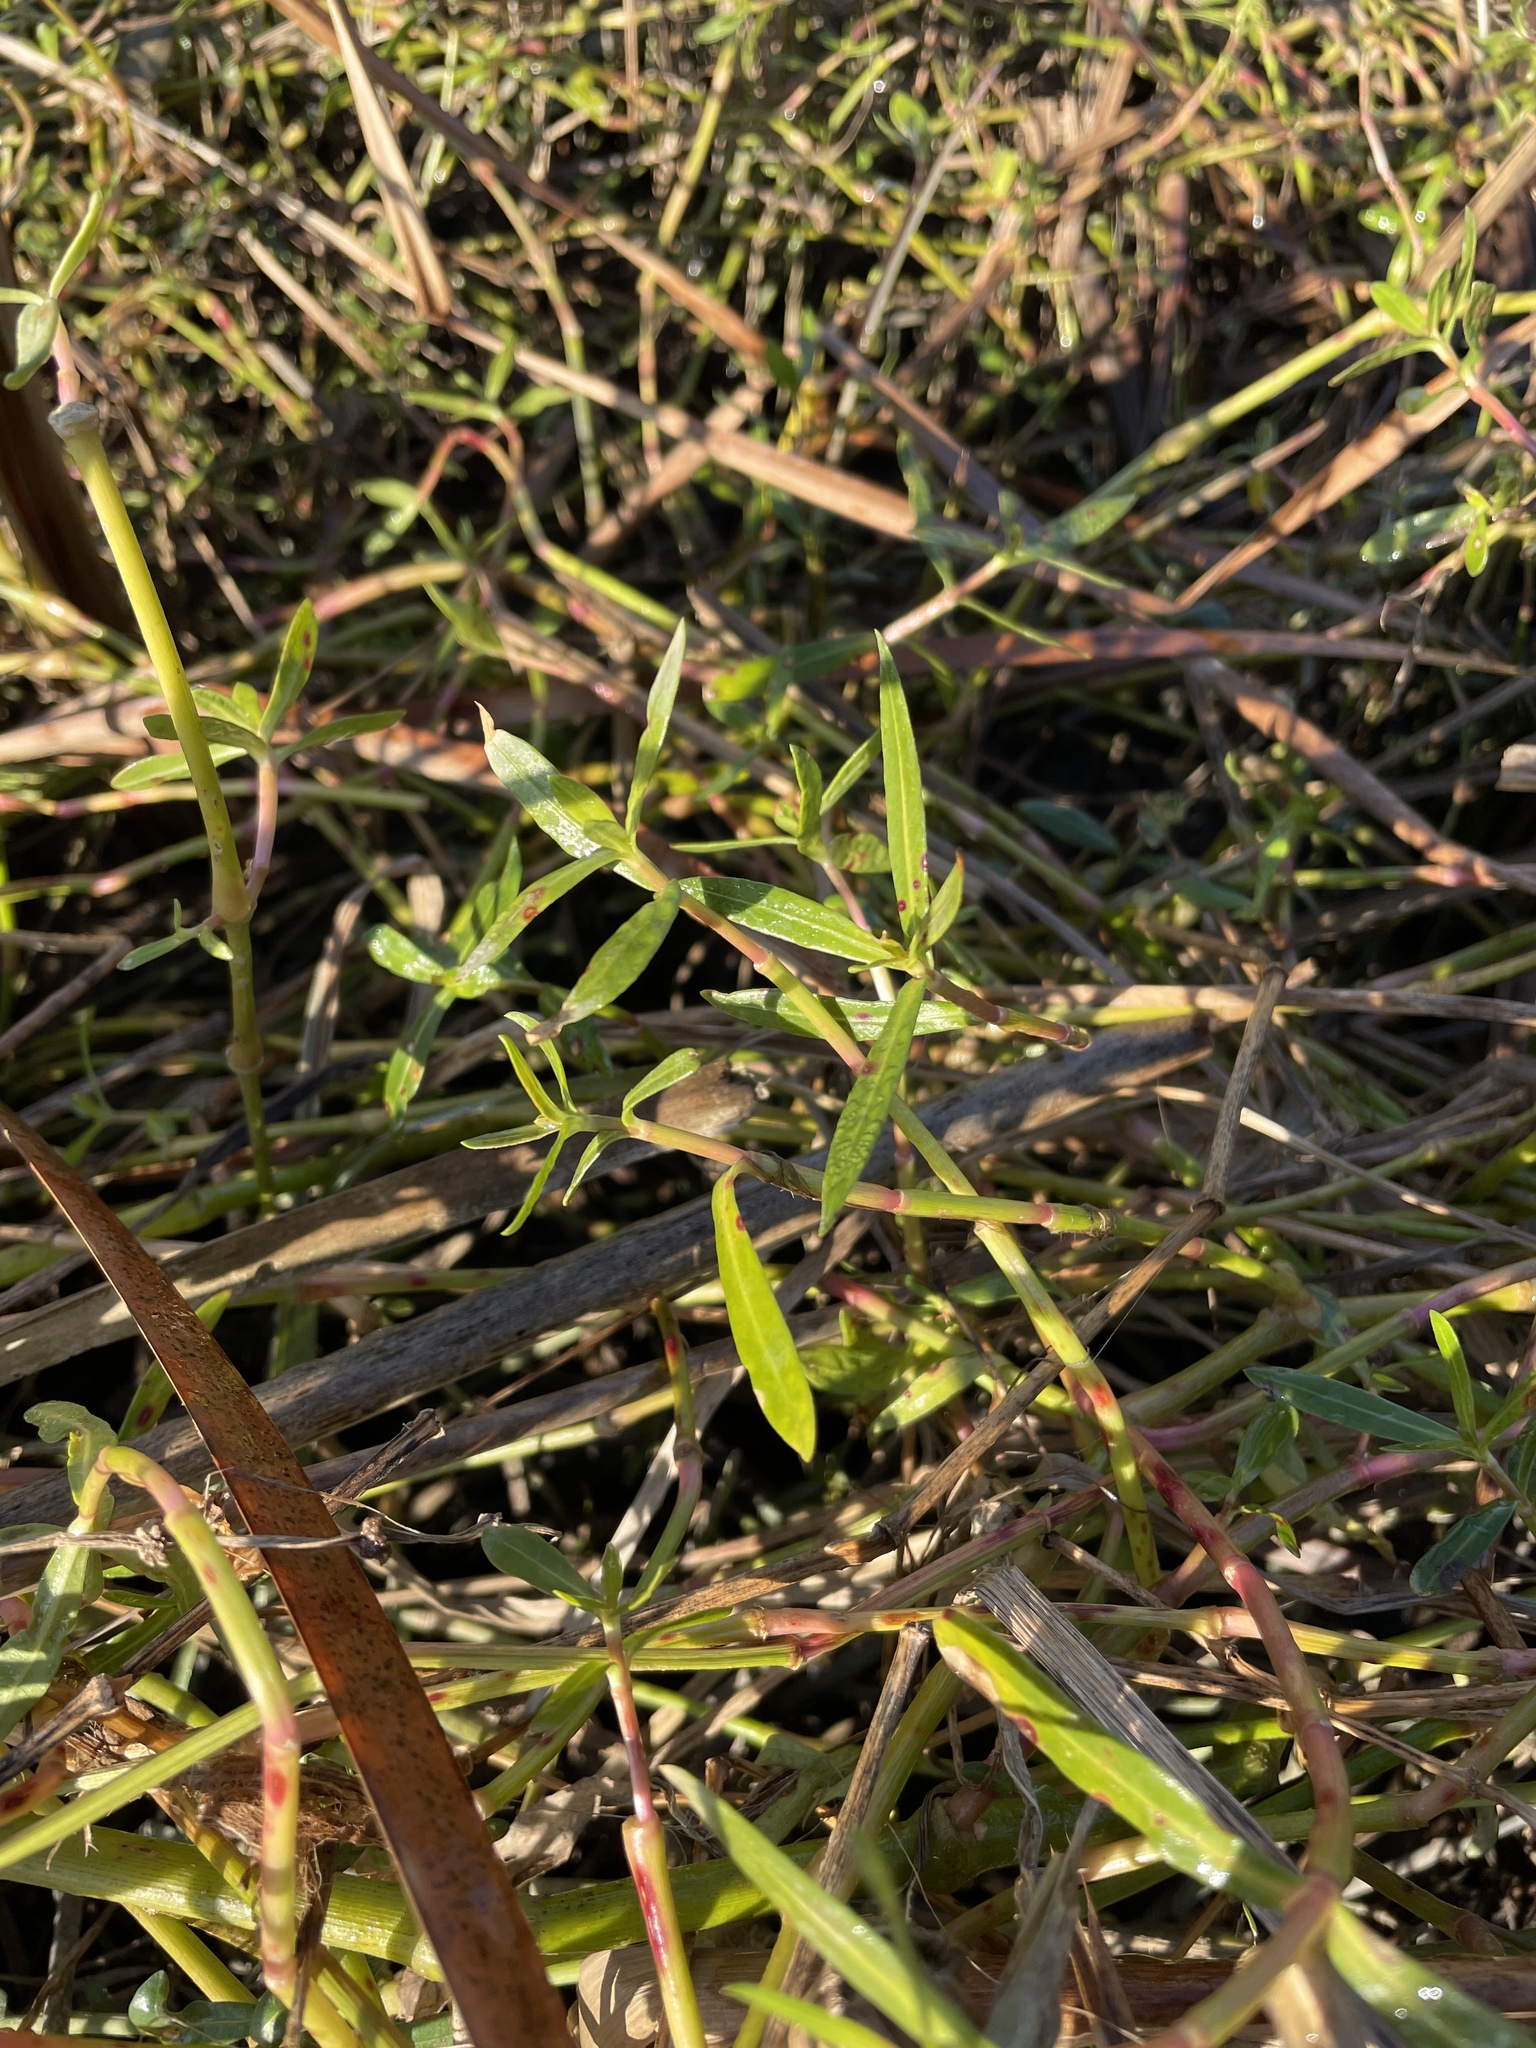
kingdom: Plantae
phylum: Tracheophyta
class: Magnoliopsida
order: Caryophyllales
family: Amaranthaceae
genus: Alternanthera
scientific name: Alternanthera philoxeroides
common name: Alligatorweed
